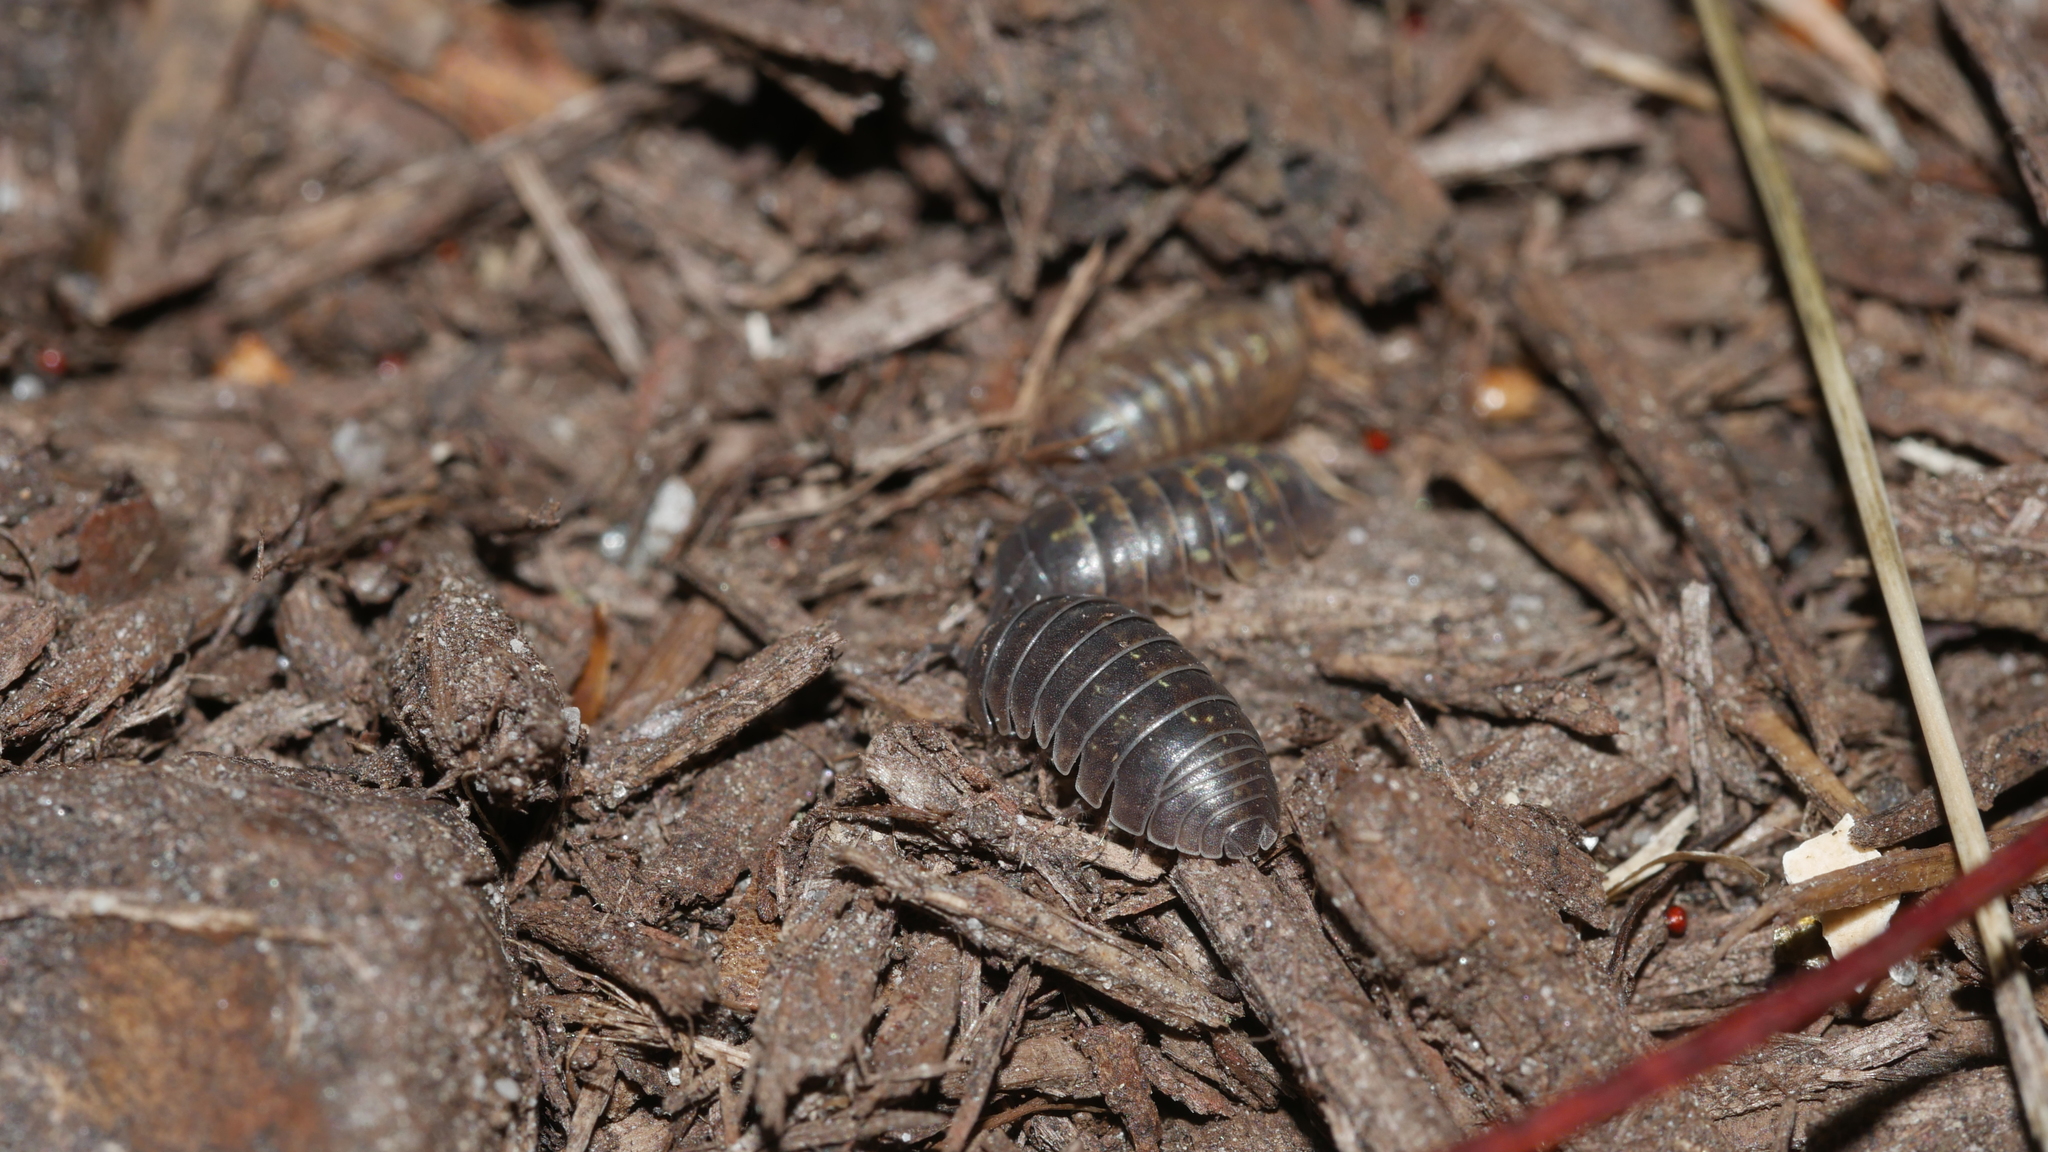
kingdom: Animalia
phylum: Arthropoda
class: Malacostraca
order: Isopoda
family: Armadillidiidae
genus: Armadillidium
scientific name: Armadillidium vulgare
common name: Common pill woodlouse
